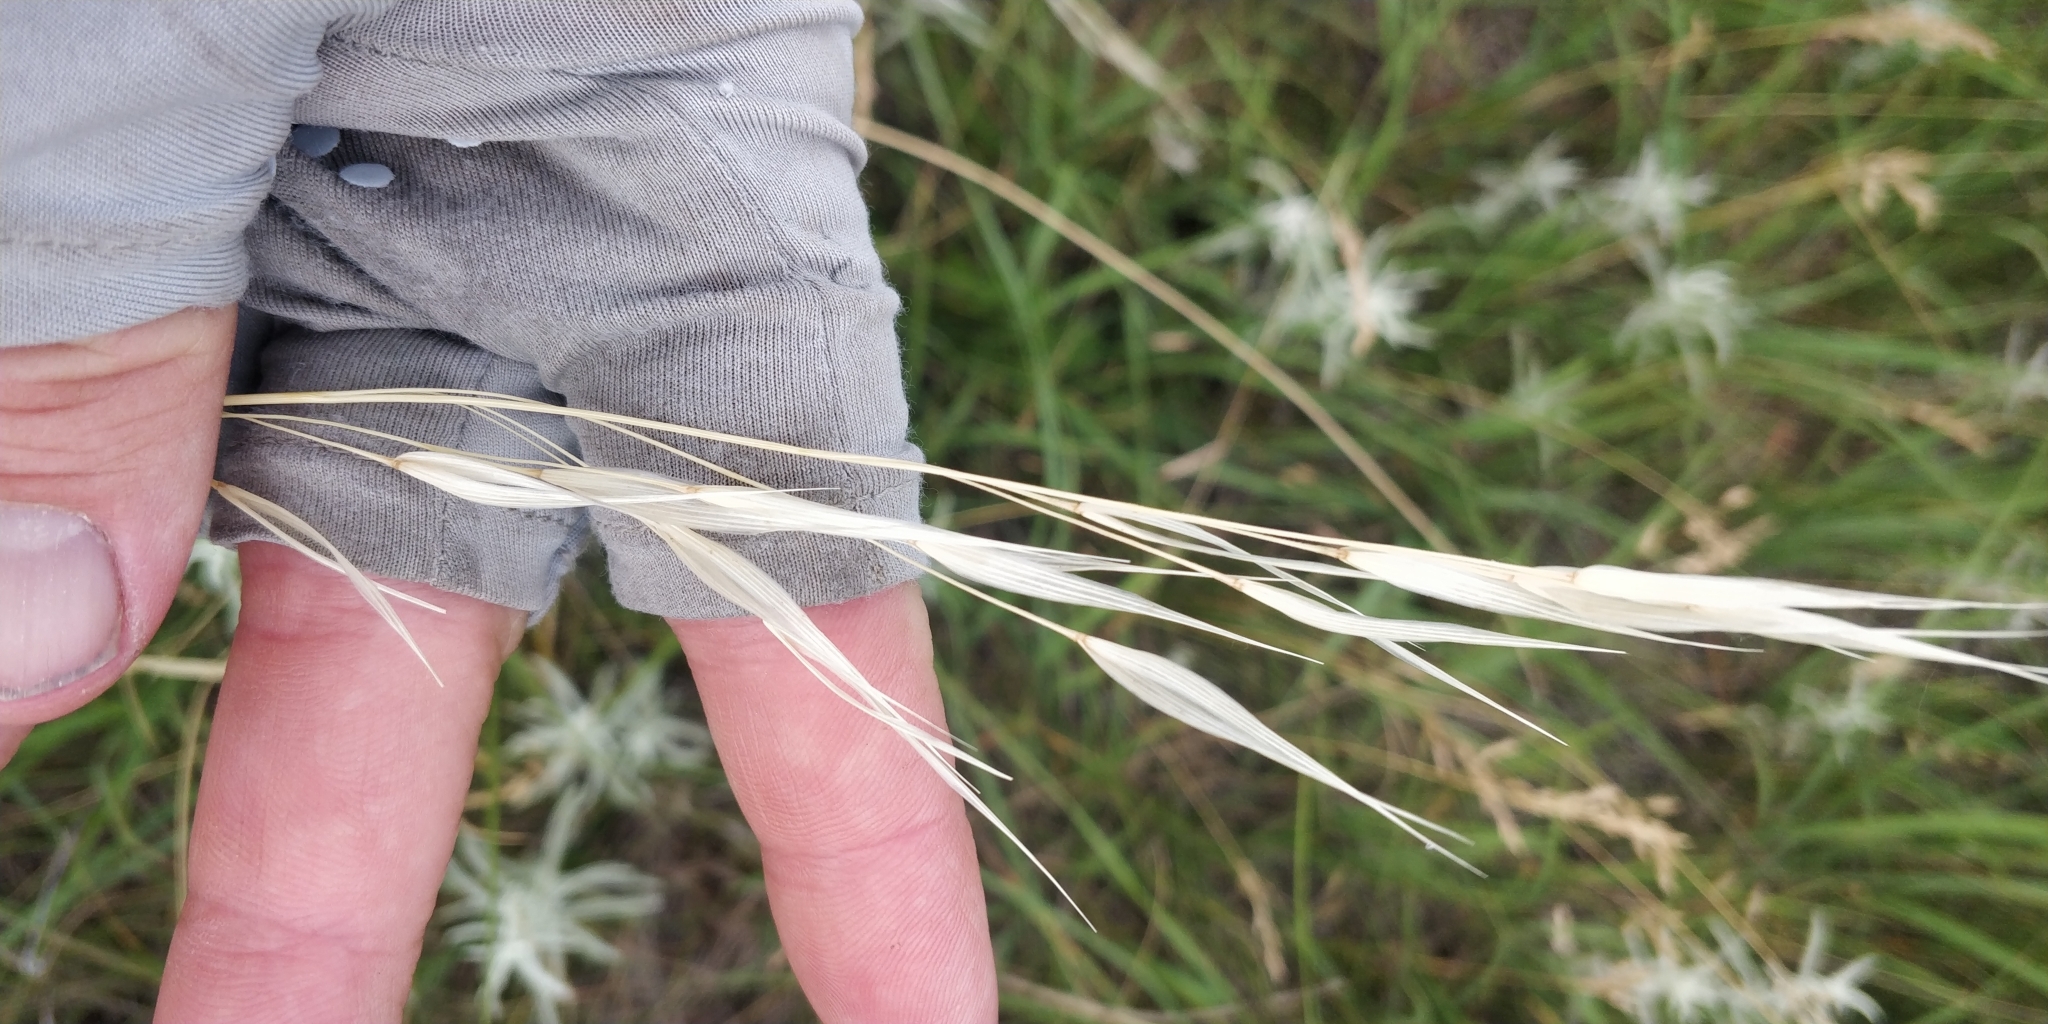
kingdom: Plantae
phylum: Tracheophyta
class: Liliopsida
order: Poales
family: Poaceae
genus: Hesperostipa
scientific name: Hesperostipa spartea
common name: Porcupine grass
